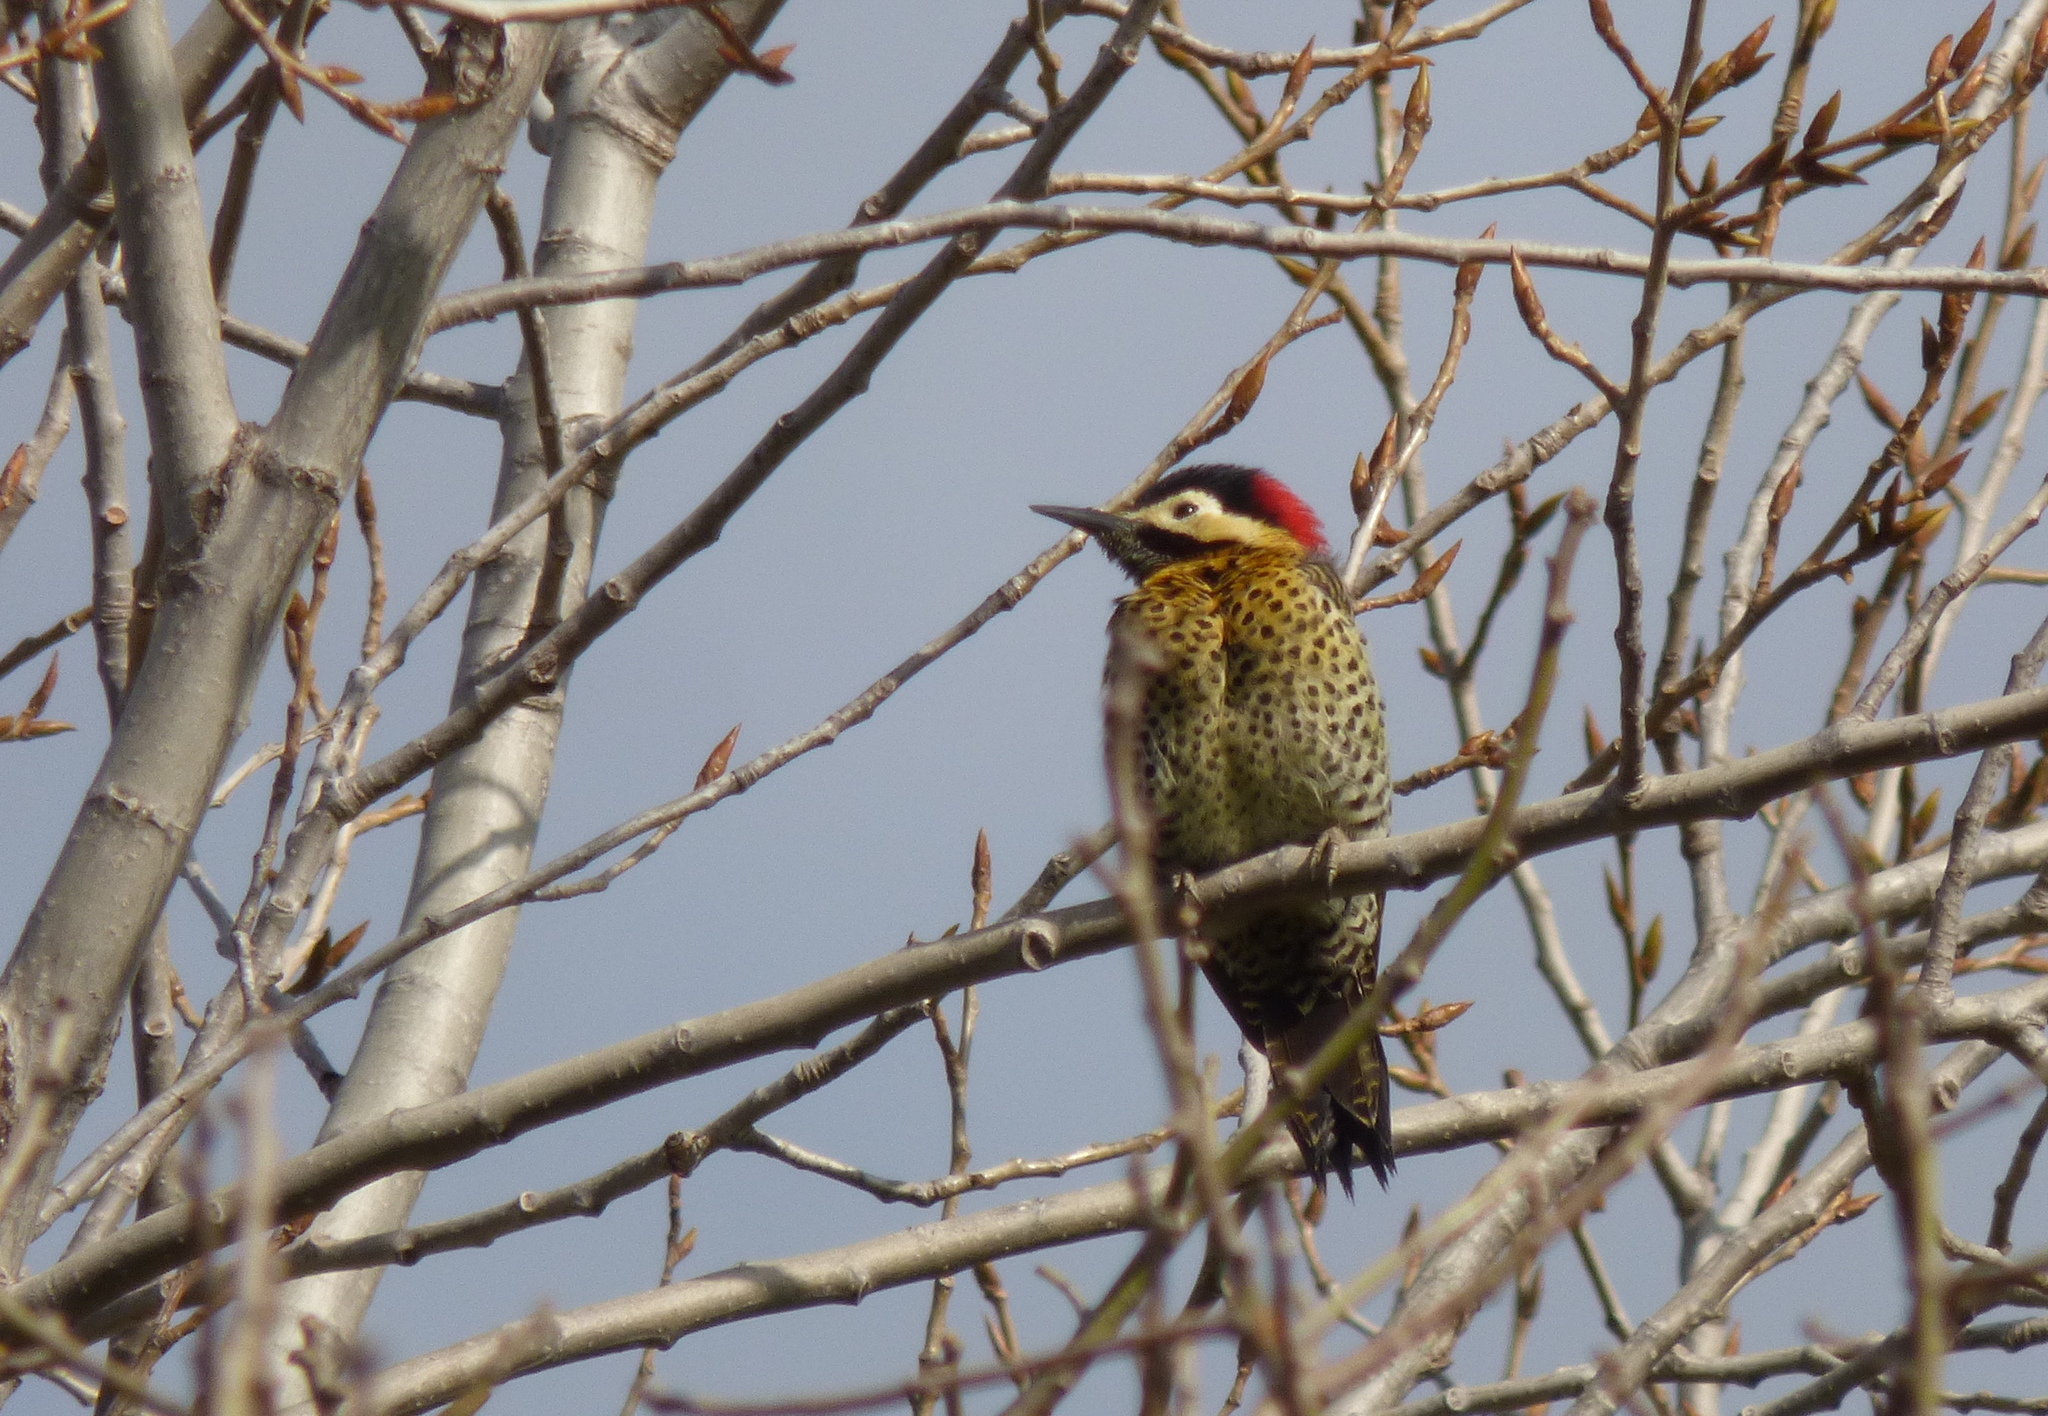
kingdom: Animalia
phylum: Chordata
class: Aves
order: Piciformes
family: Picidae
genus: Colaptes
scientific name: Colaptes melanochloros
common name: Green-barred woodpecker
